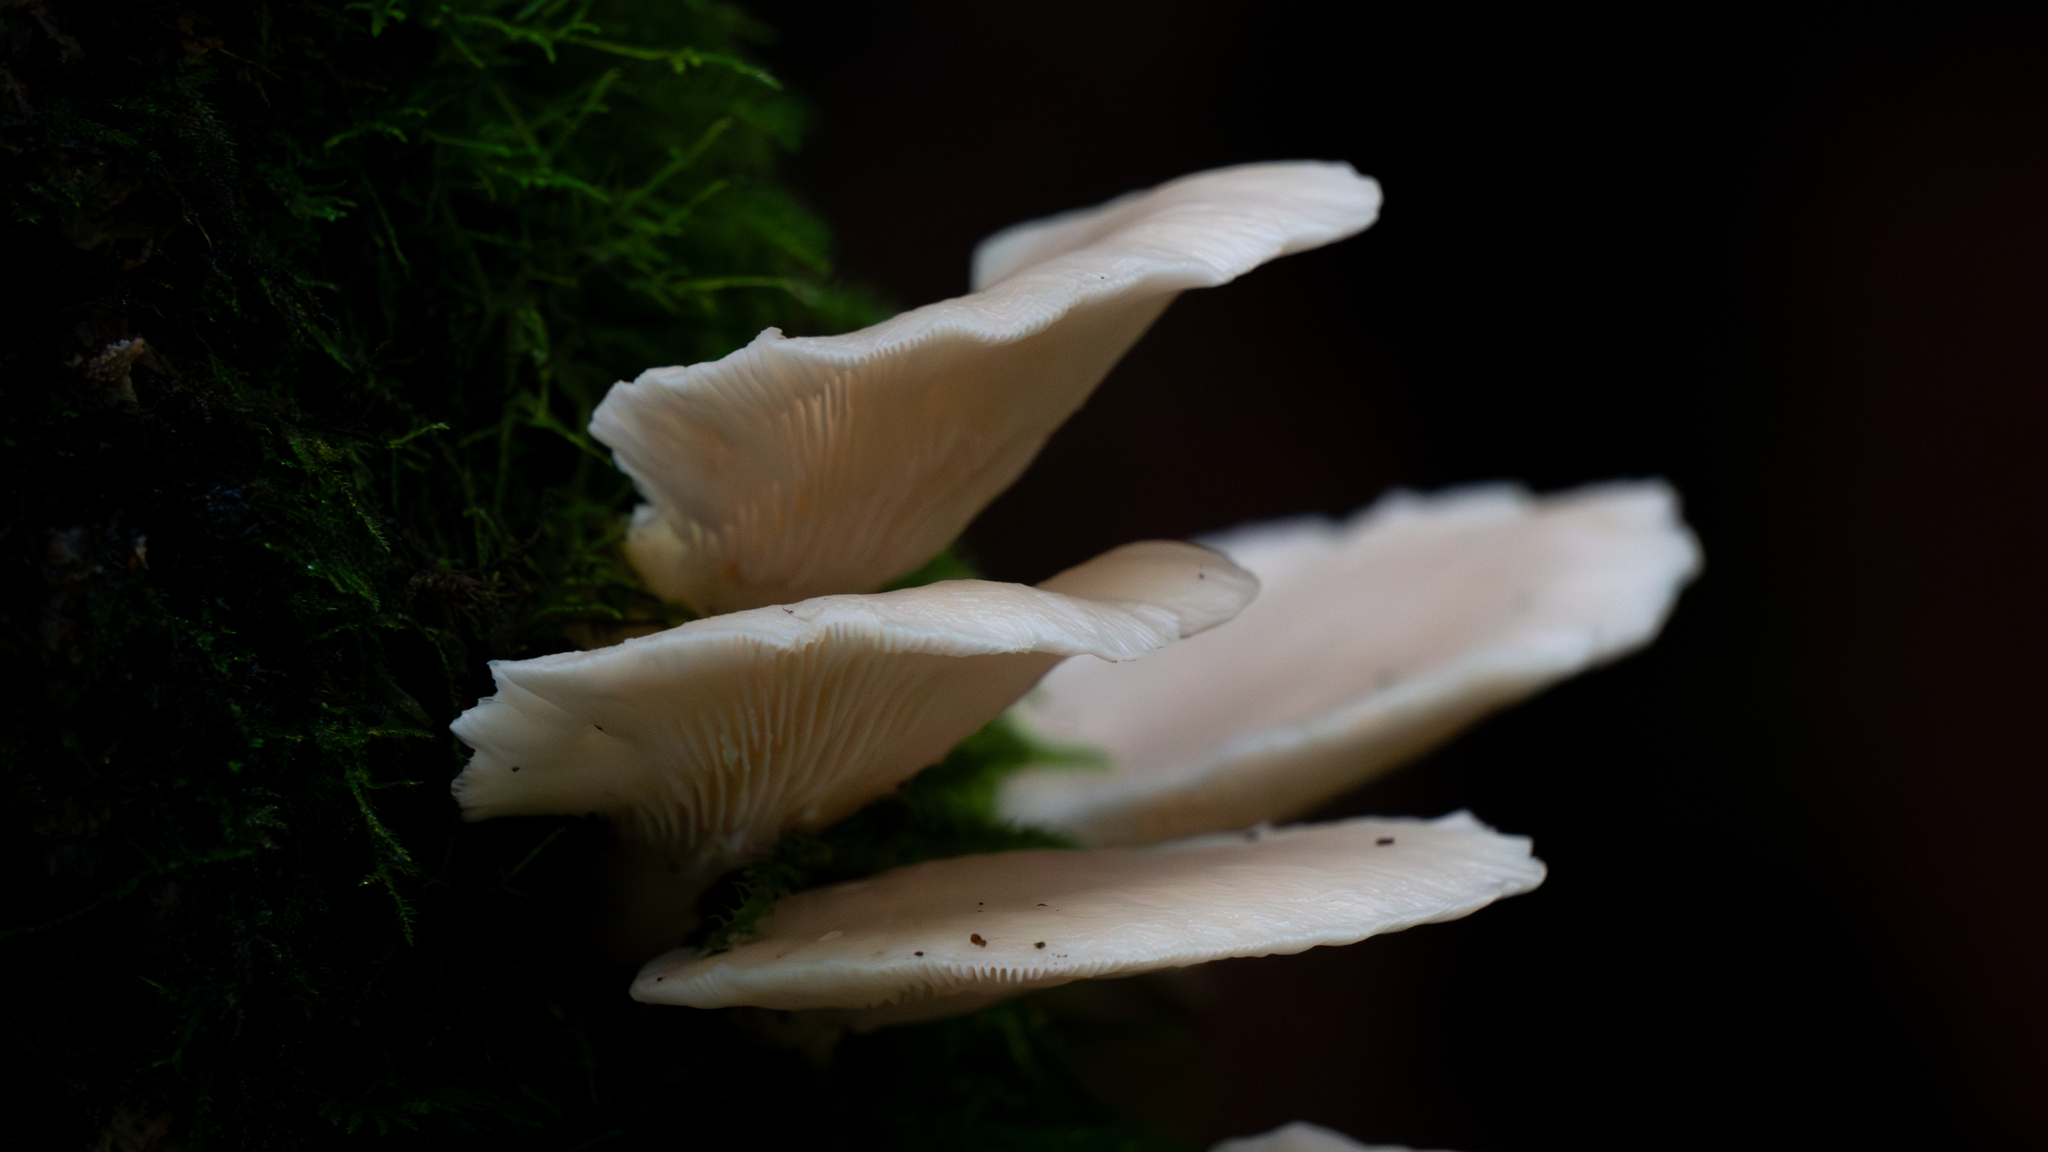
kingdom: Fungi
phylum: Basidiomycota
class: Agaricomycetes
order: Agaricales
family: Marasmiaceae
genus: Pleurocybella
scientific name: Pleurocybella porrigens
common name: Angel's wings
